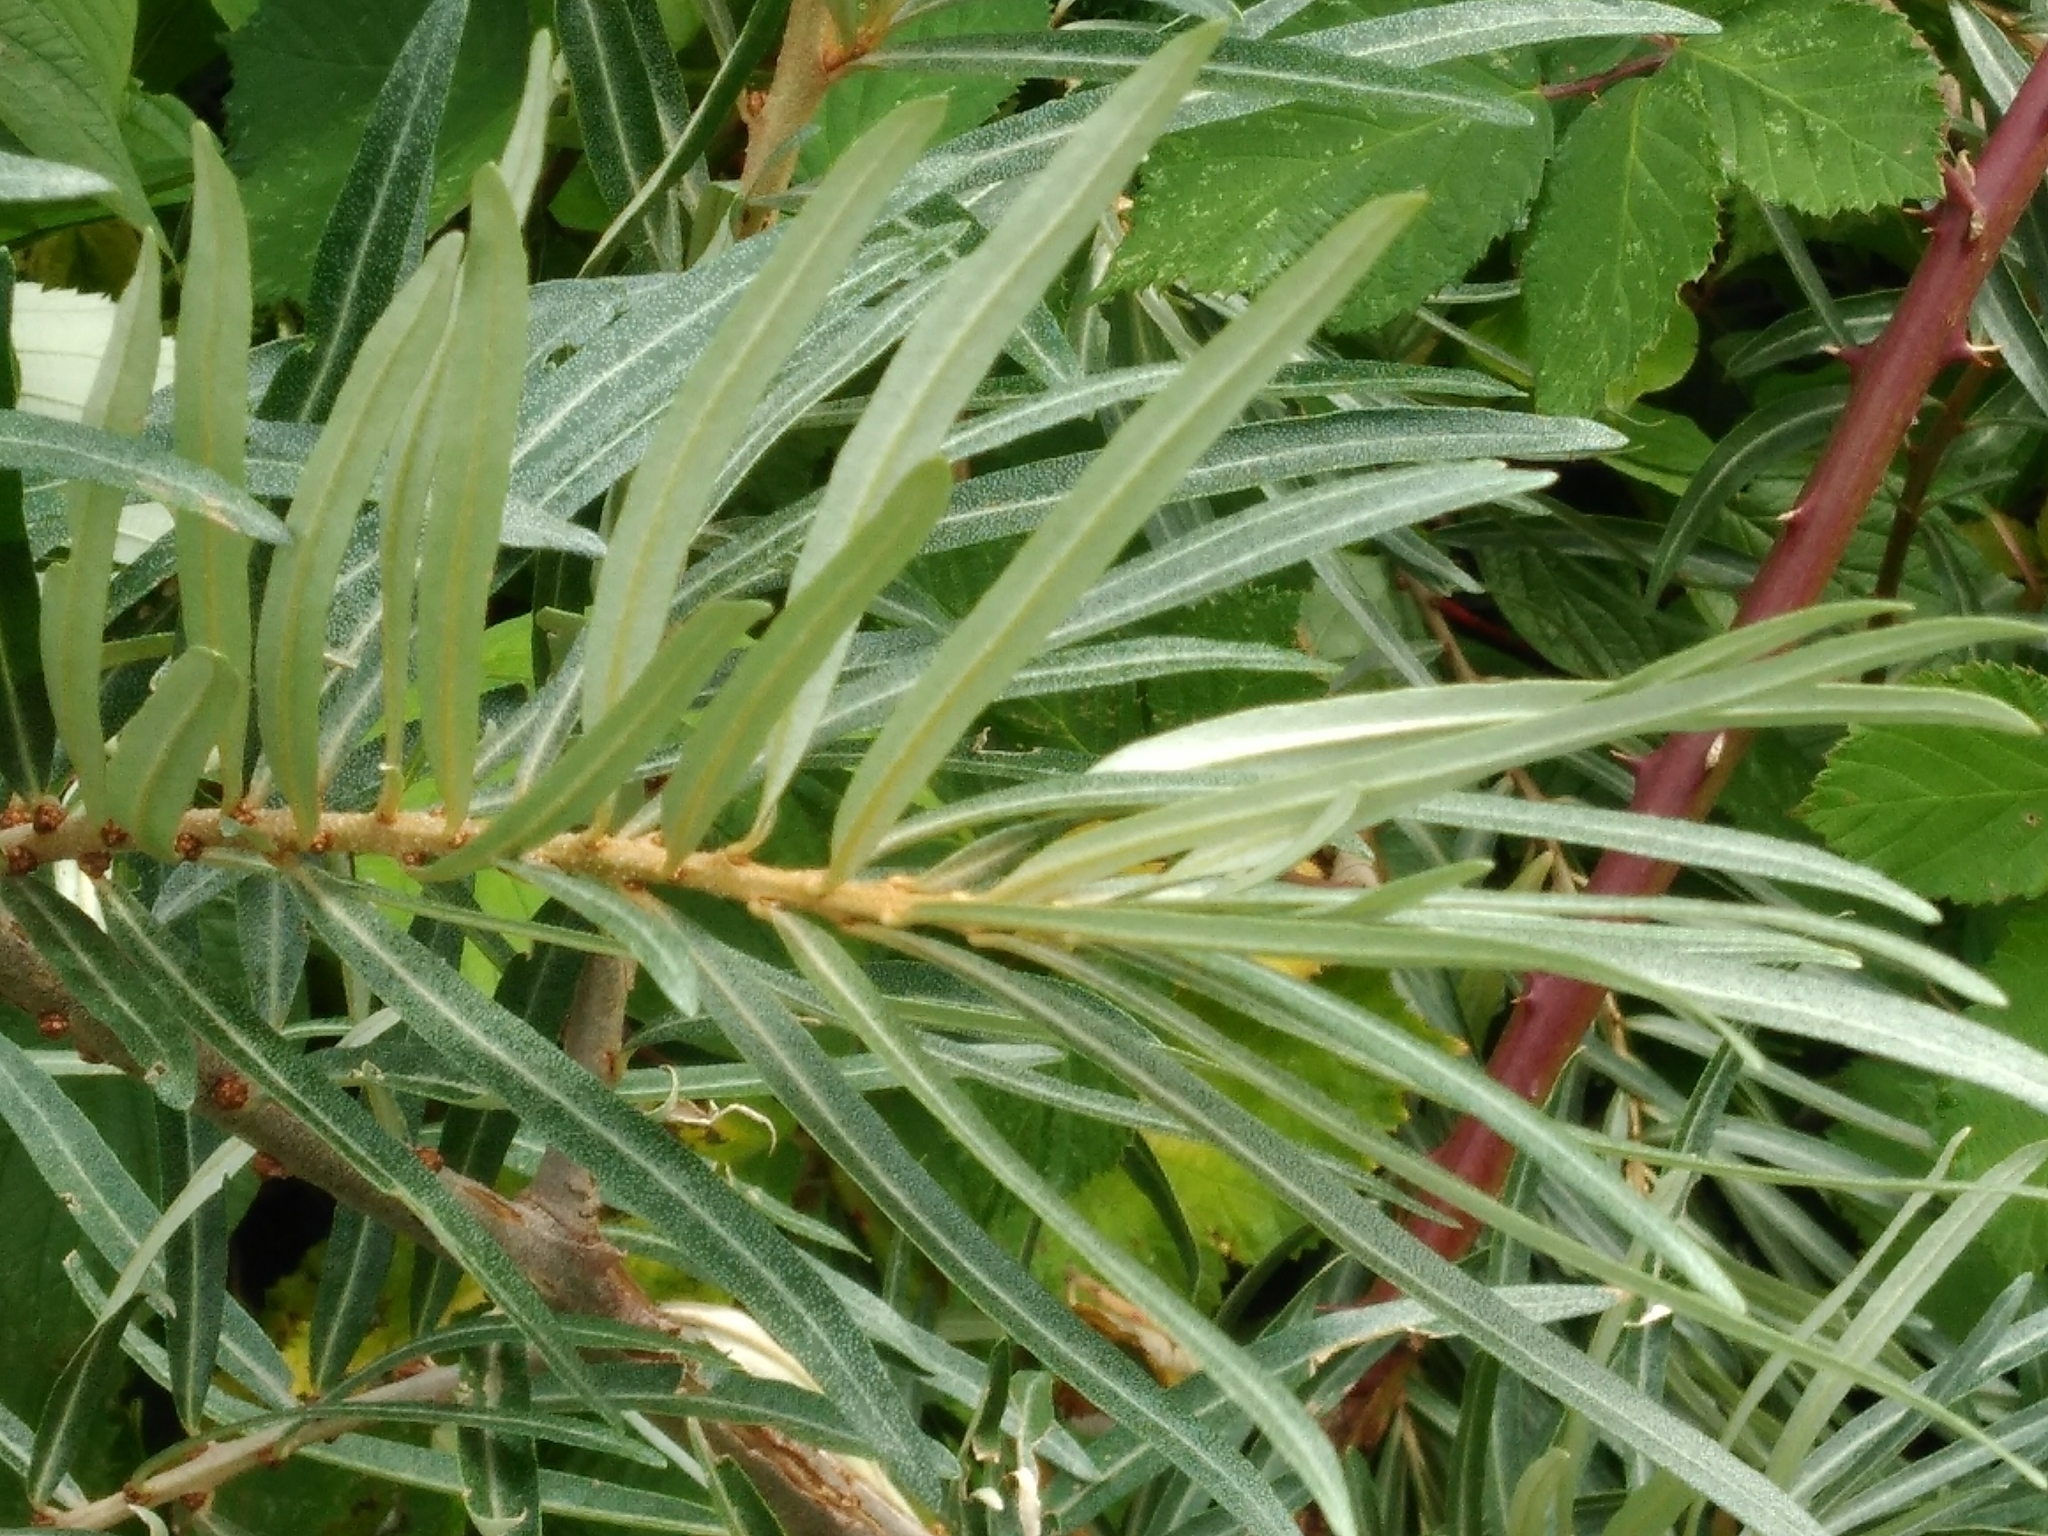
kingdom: Plantae
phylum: Tracheophyta
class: Magnoliopsida
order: Rosales
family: Elaeagnaceae
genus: Hippophae
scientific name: Hippophae rhamnoides
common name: Sea-buckthorn
